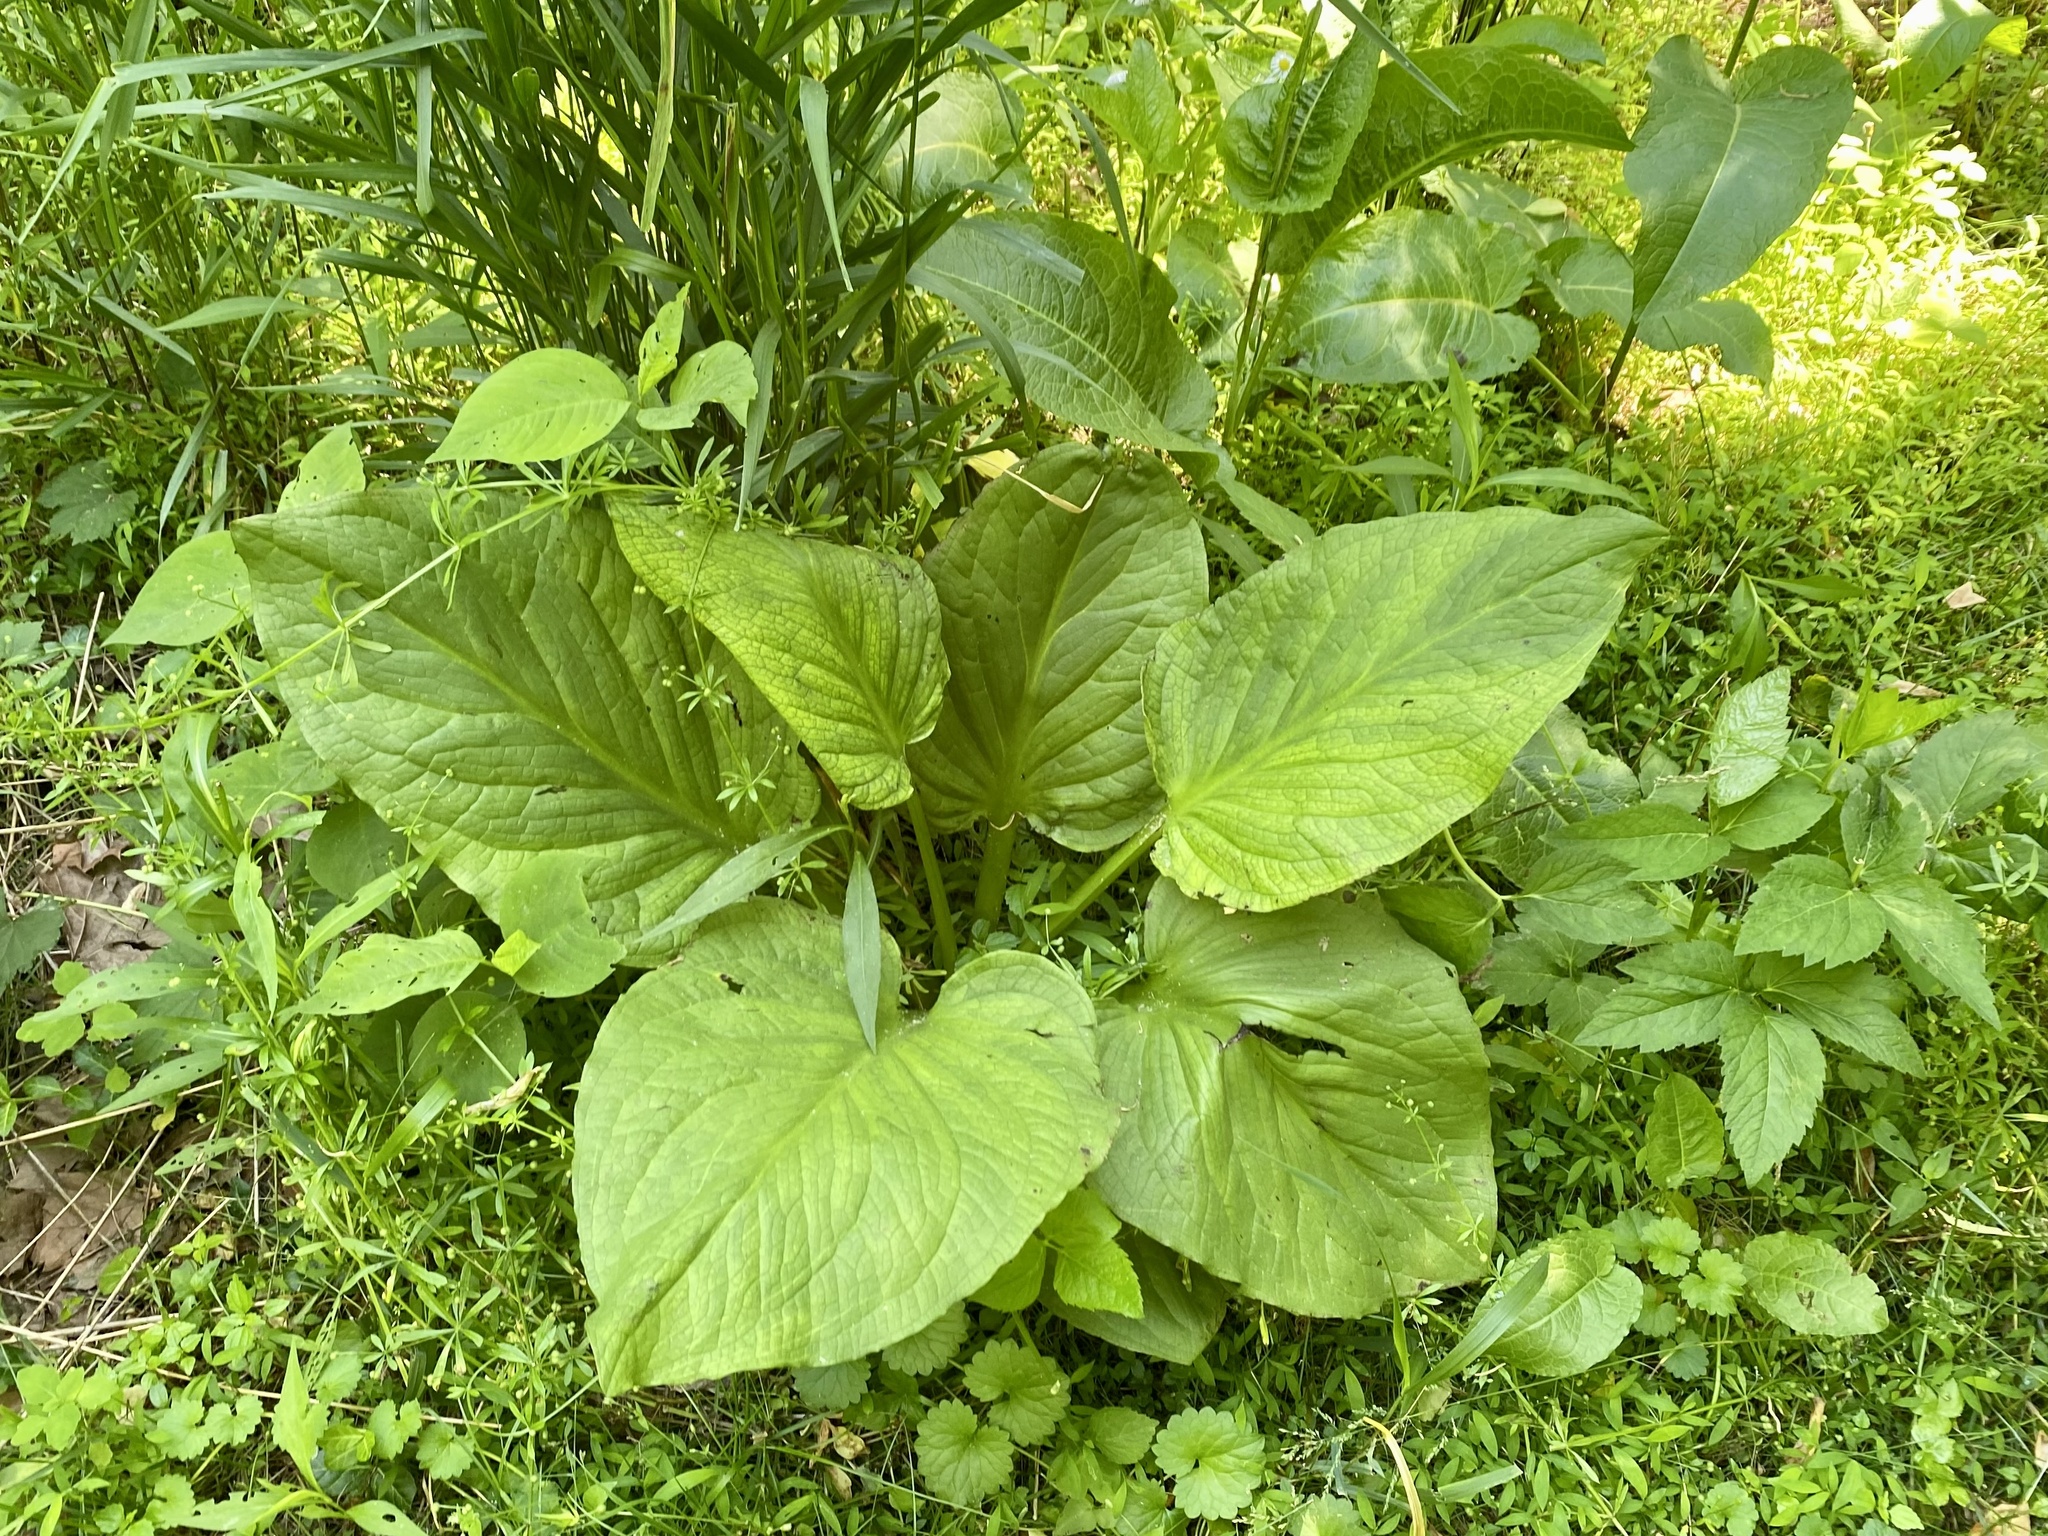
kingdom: Plantae
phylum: Tracheophyta
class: Liliopsida
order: Alismatales
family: Araceae
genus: Symplocarpus
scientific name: Symplocarpus foetidus
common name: Eastern skunk cabbage
